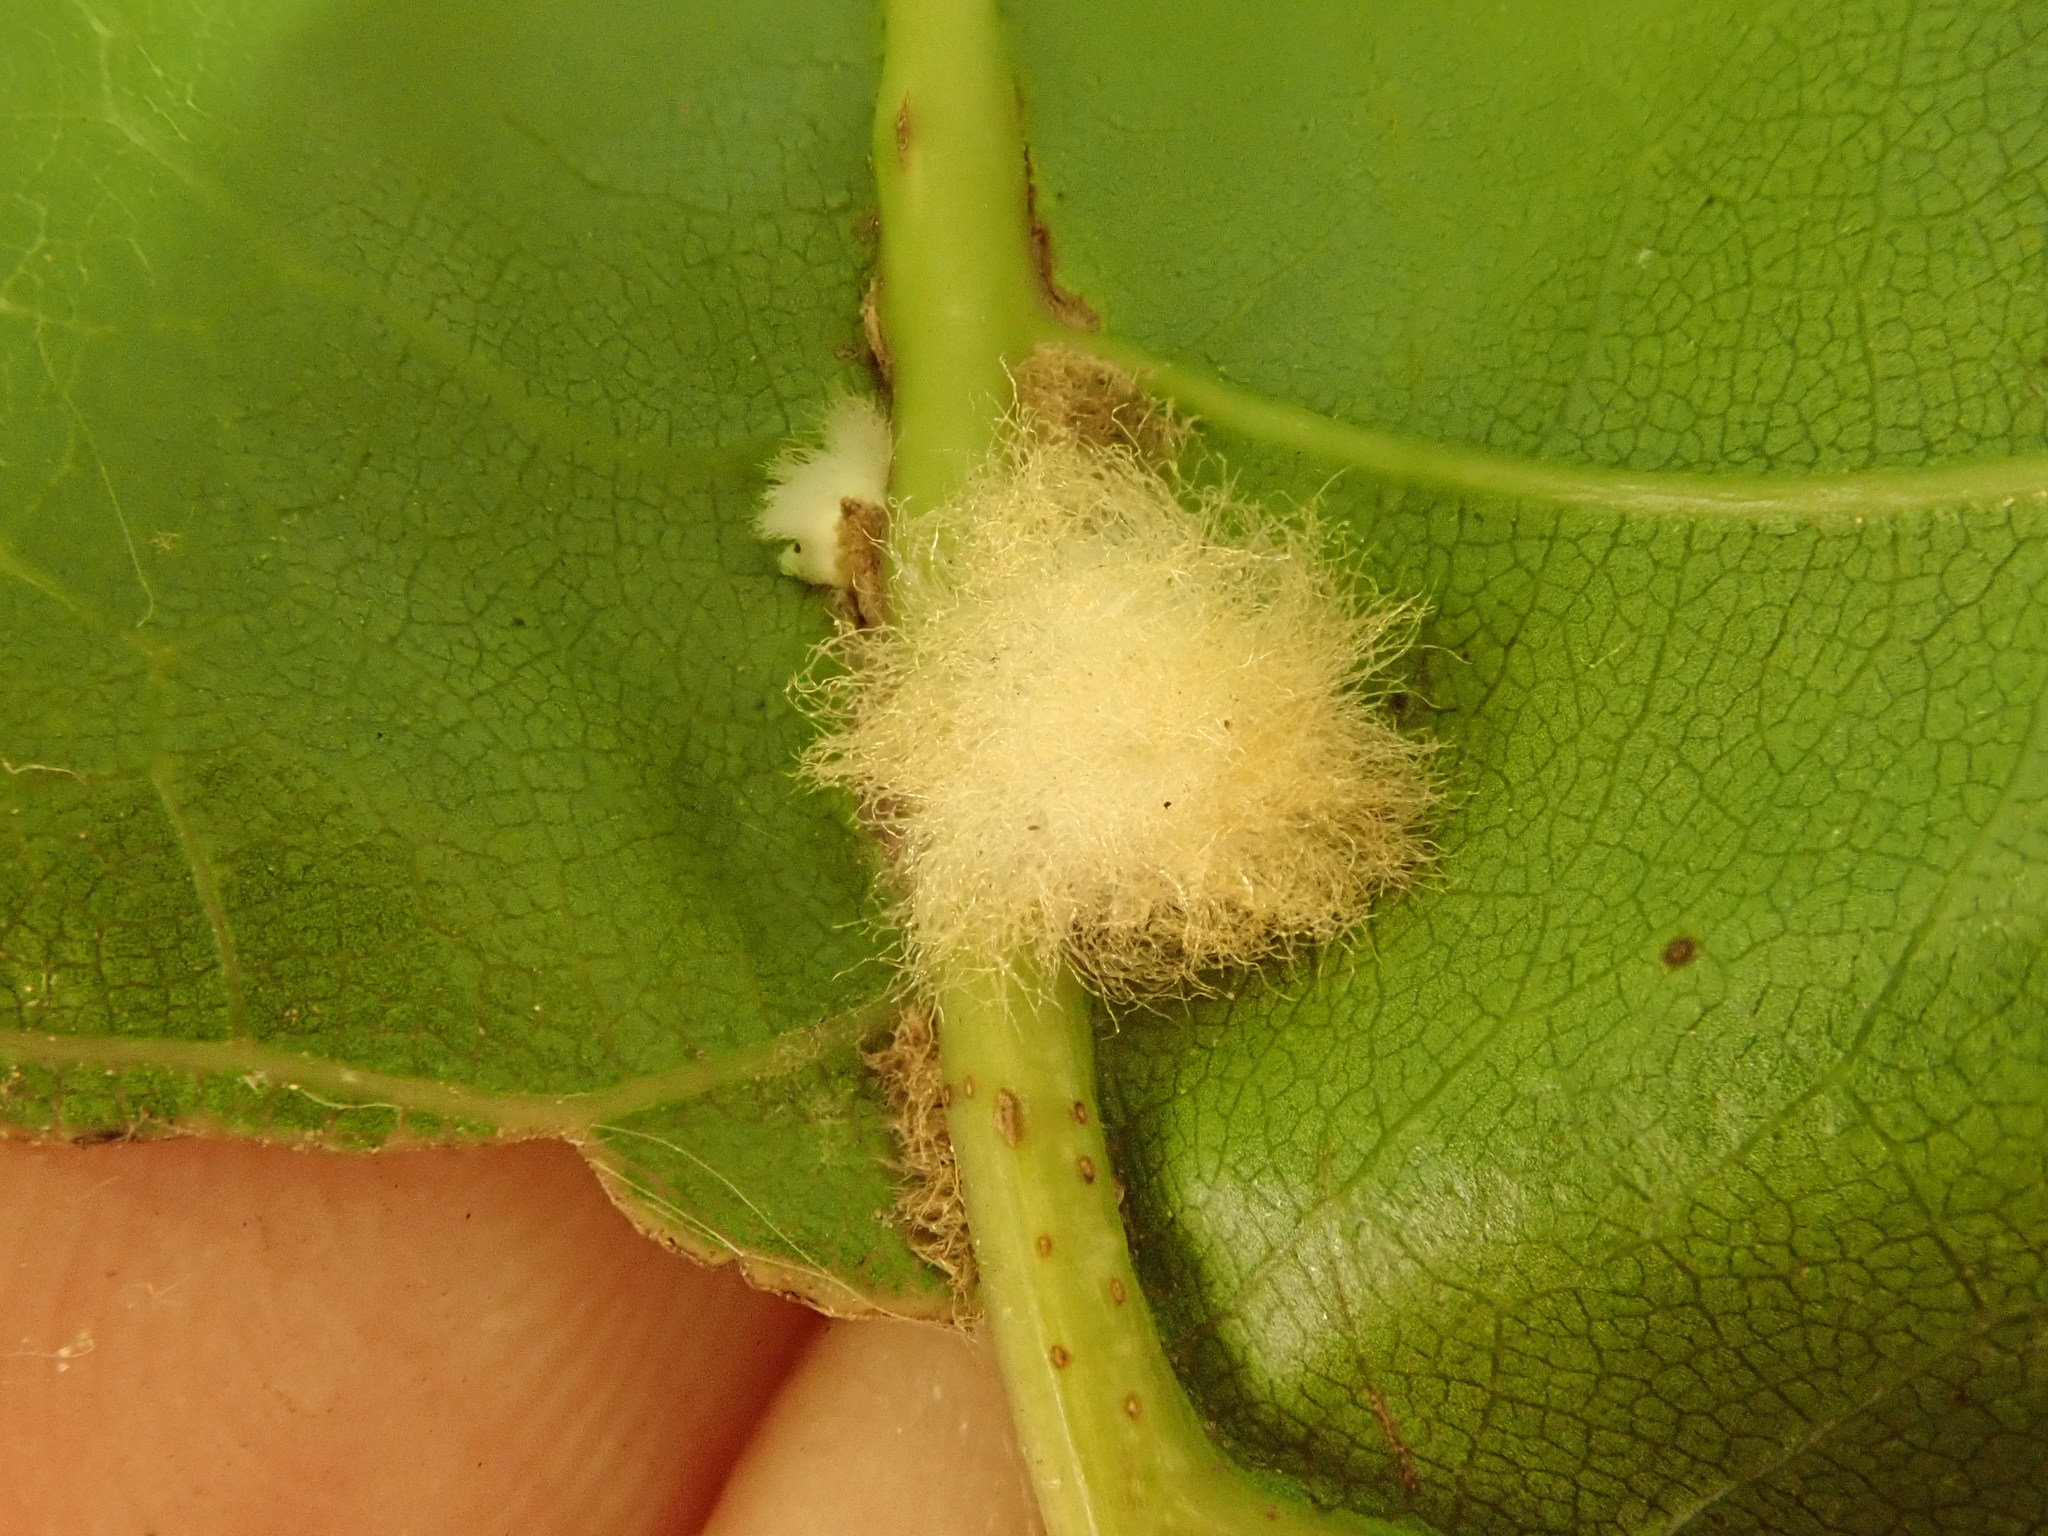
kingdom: Animalia
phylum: Arthropoda
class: Insecta
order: Hymenoptera
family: Cynipidae
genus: Callirhytis
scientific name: Callirhytis
